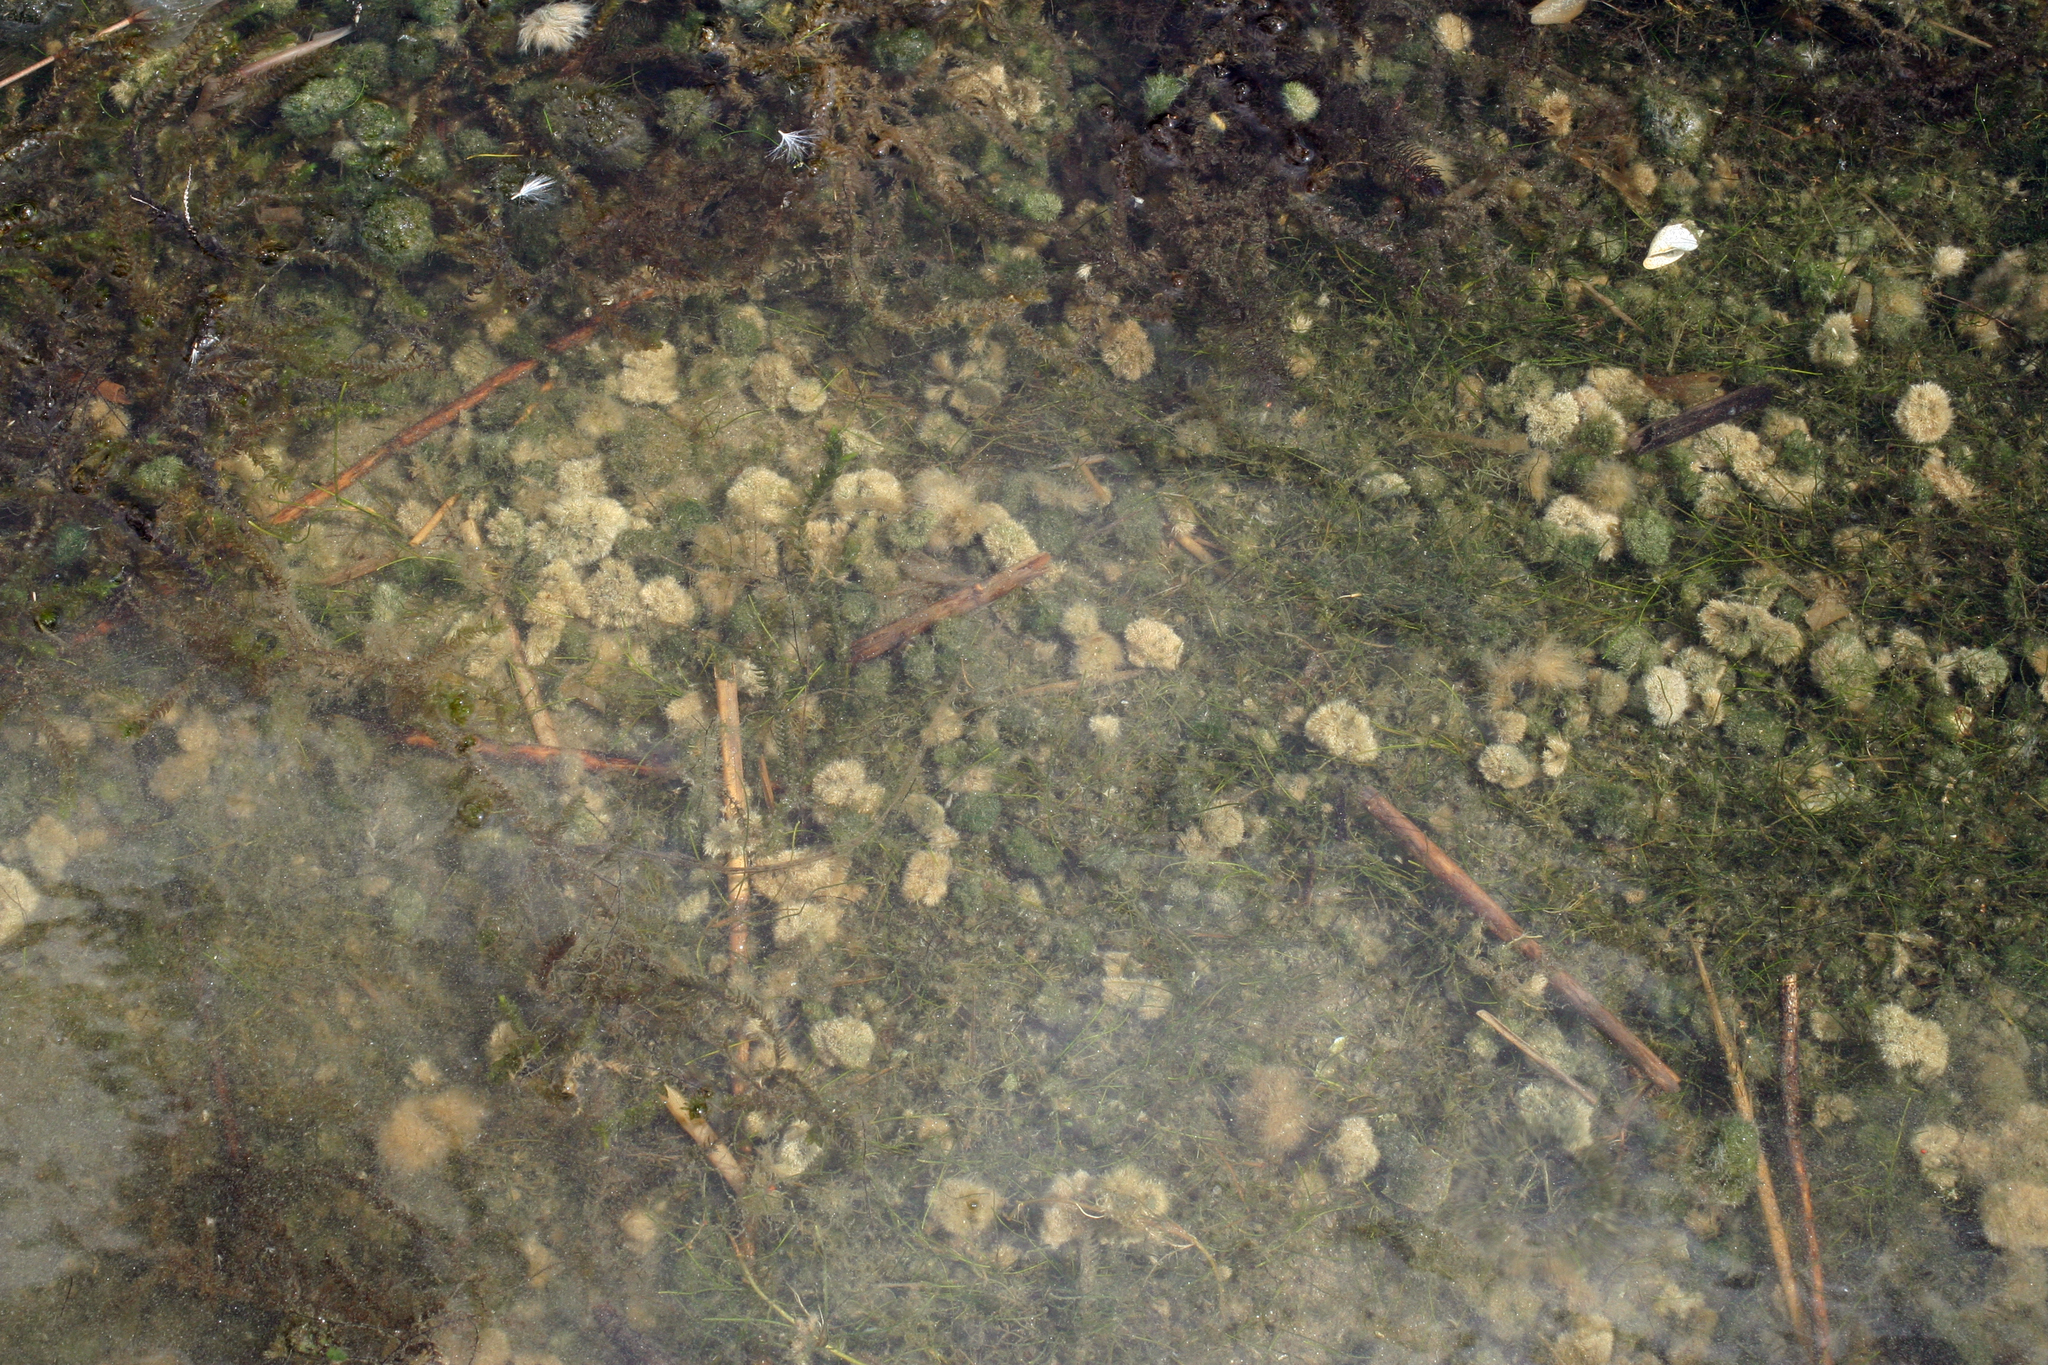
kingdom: Plantae
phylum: Chlorophyta
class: Ulvophyceae
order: Cladophorales
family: Cladophoraceae
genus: Aegagropila
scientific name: Aegagropila linnaei
